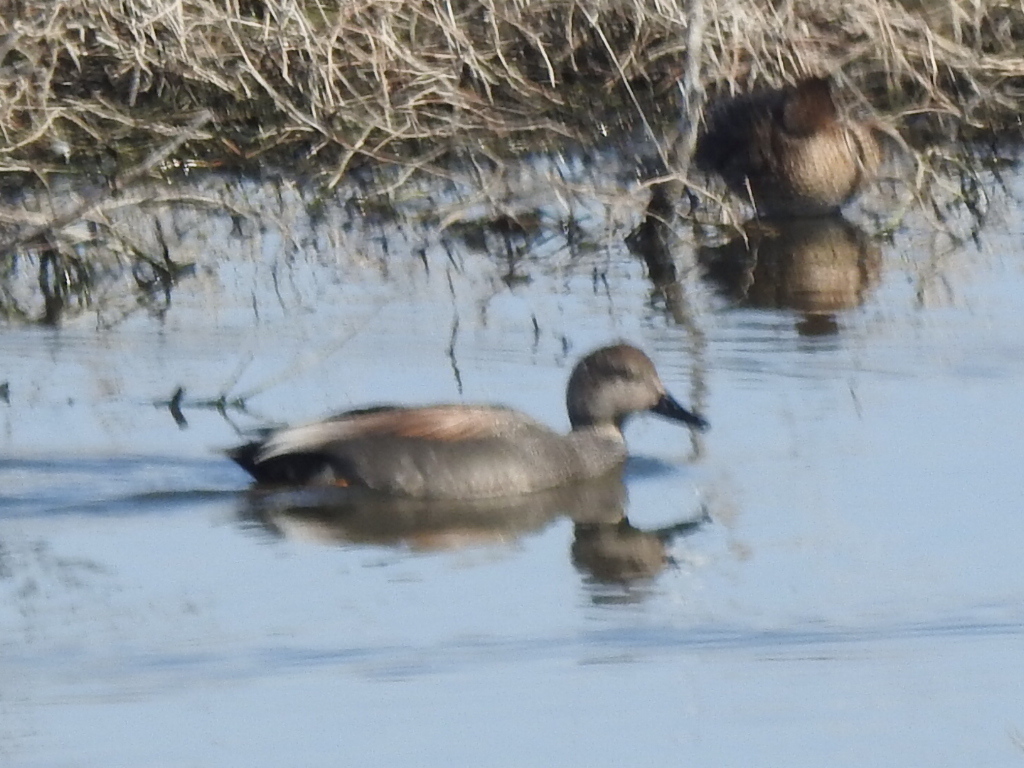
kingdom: Animalia
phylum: Chordata
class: Aves
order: Anseriformes
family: Anatidae
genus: Mareca
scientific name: Mareca strepera
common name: Gadwall
